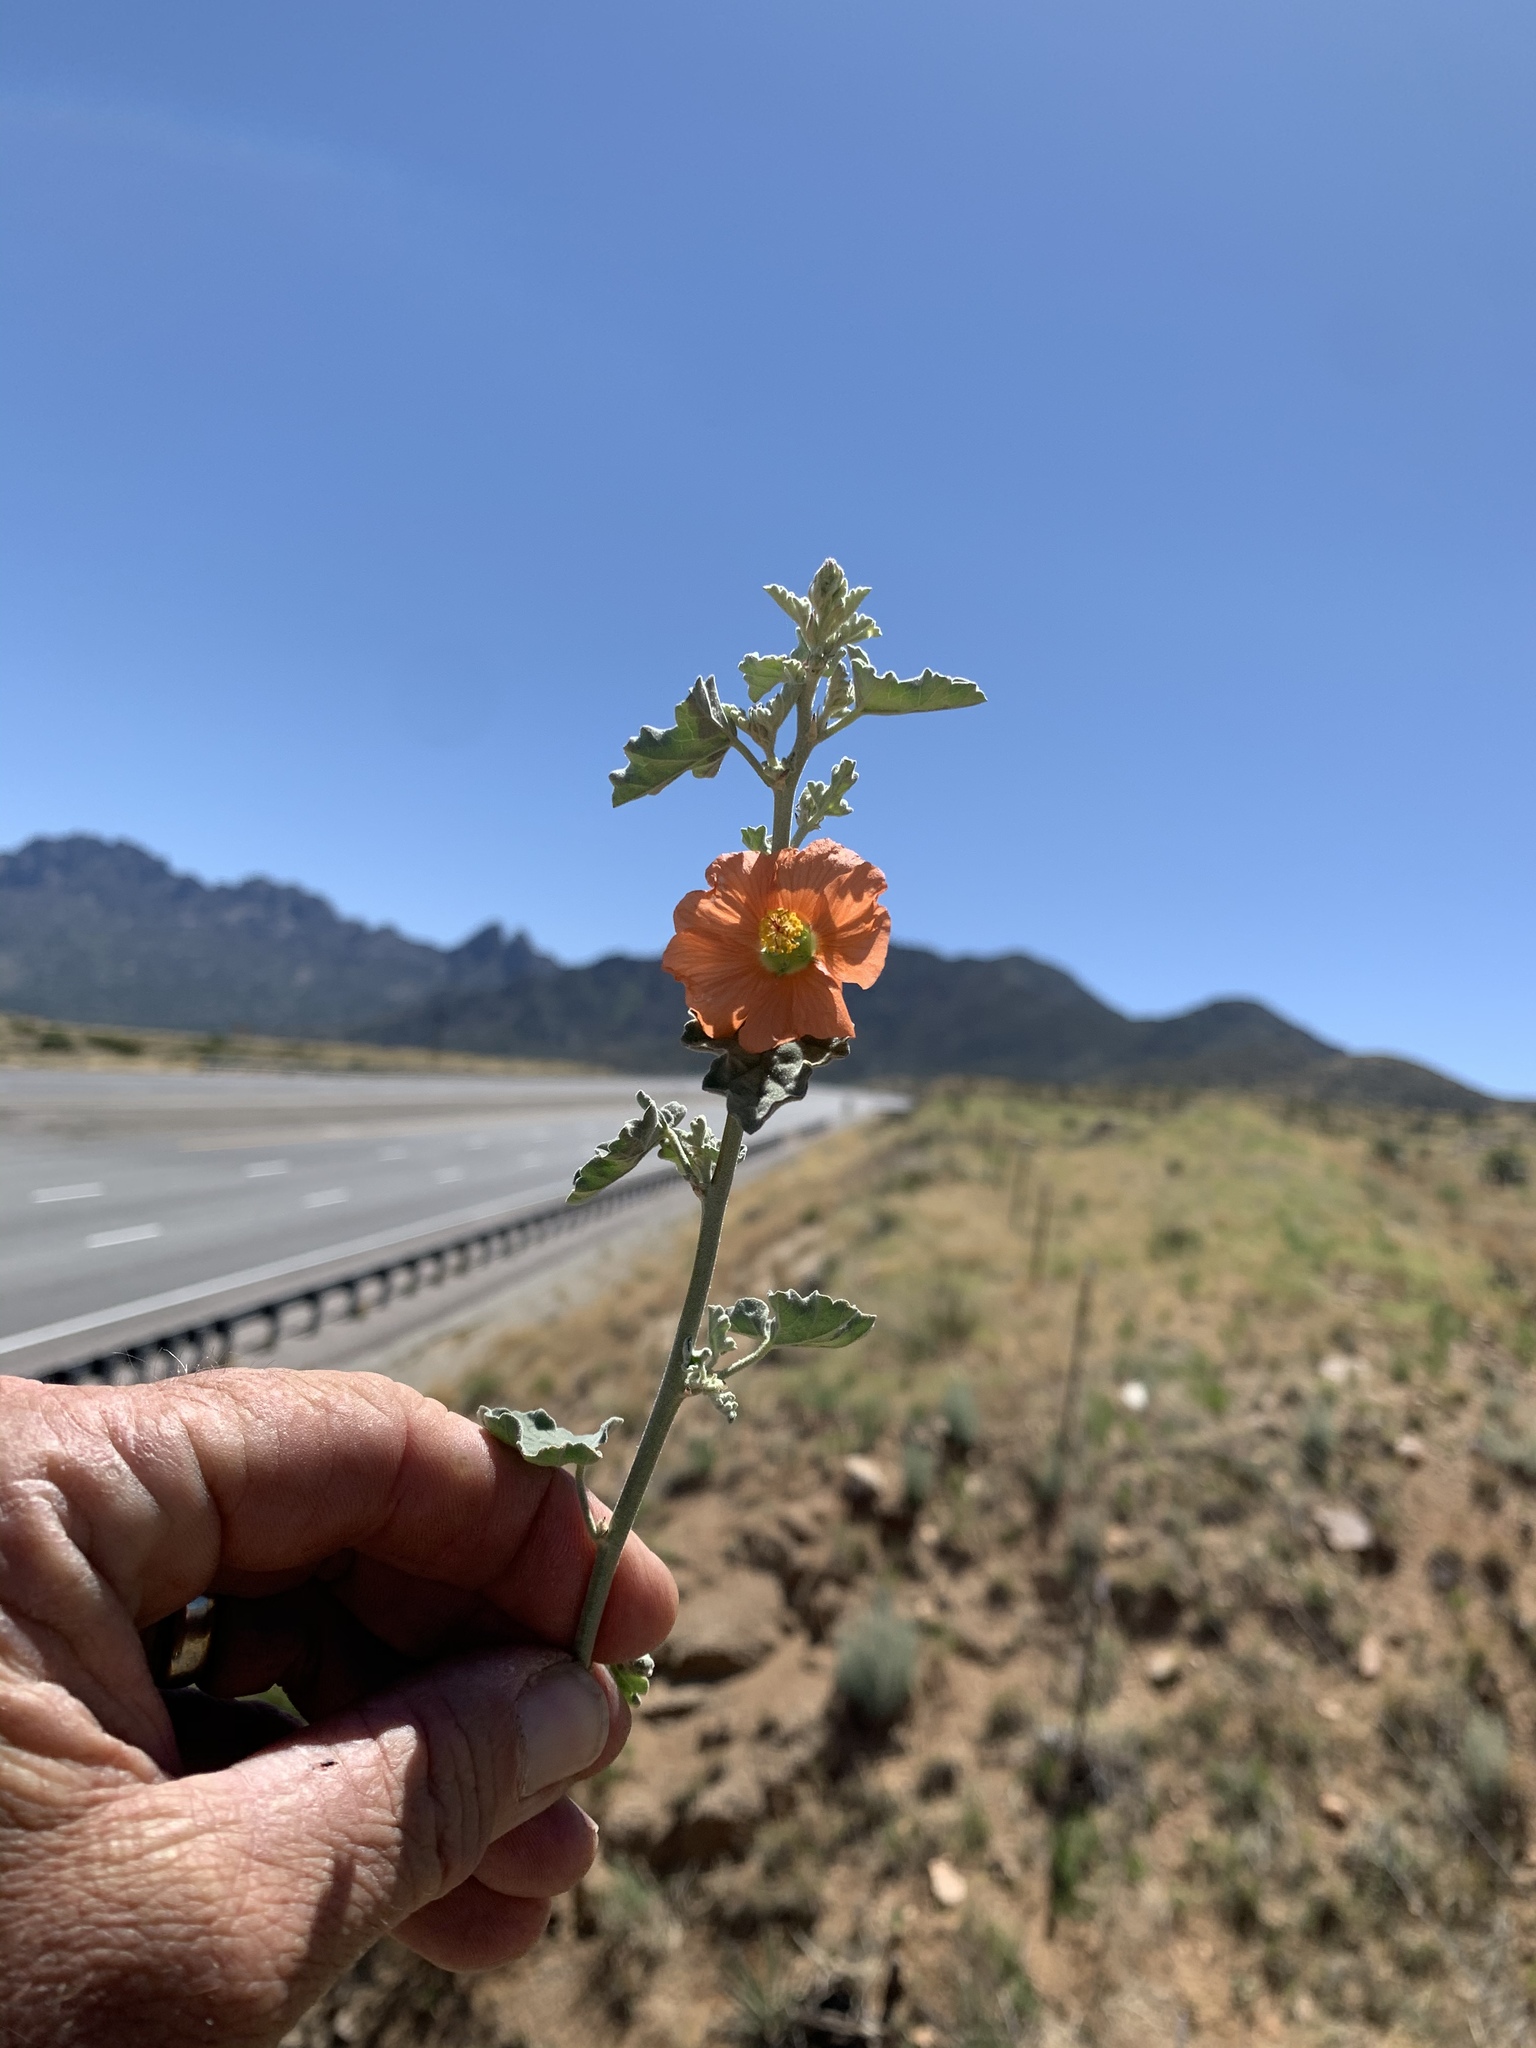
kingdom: Plantae
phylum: Tracheophyta
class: Magnoliopsida
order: Malvales
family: Malvaceae
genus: Sphaeralcea
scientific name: Sphaeralcea incana
